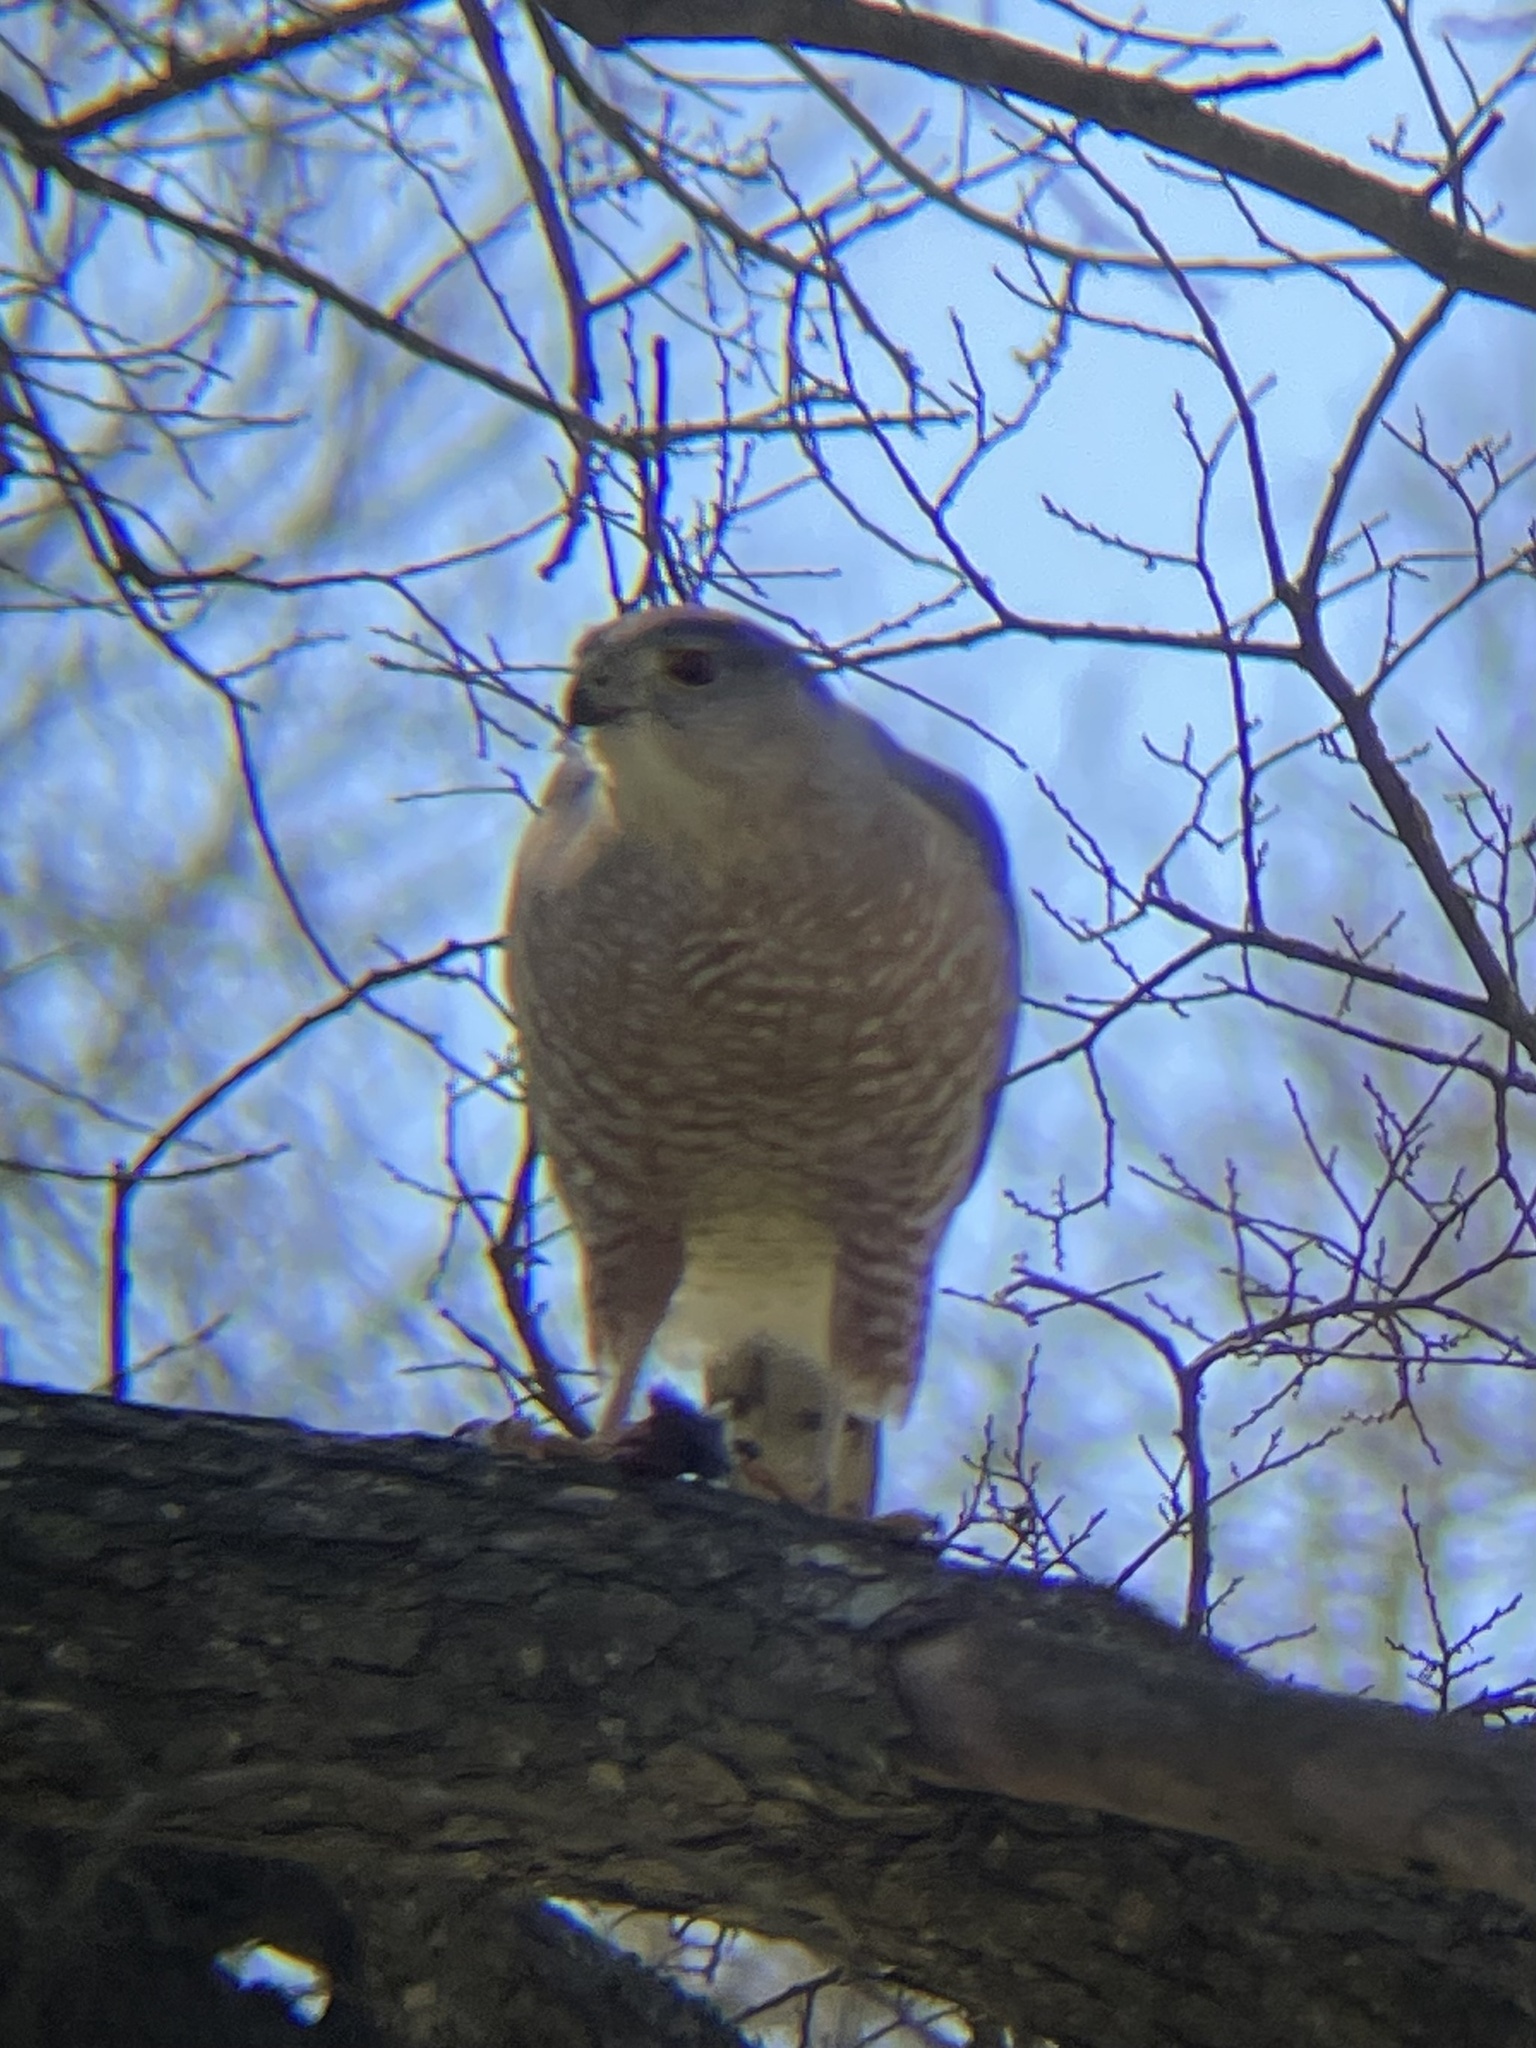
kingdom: Animalia
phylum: Chordata
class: Aves
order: Accipitriformes
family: Accipitridae
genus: Accipiter
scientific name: Accipiter cooperii
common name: Cooper's hawk
